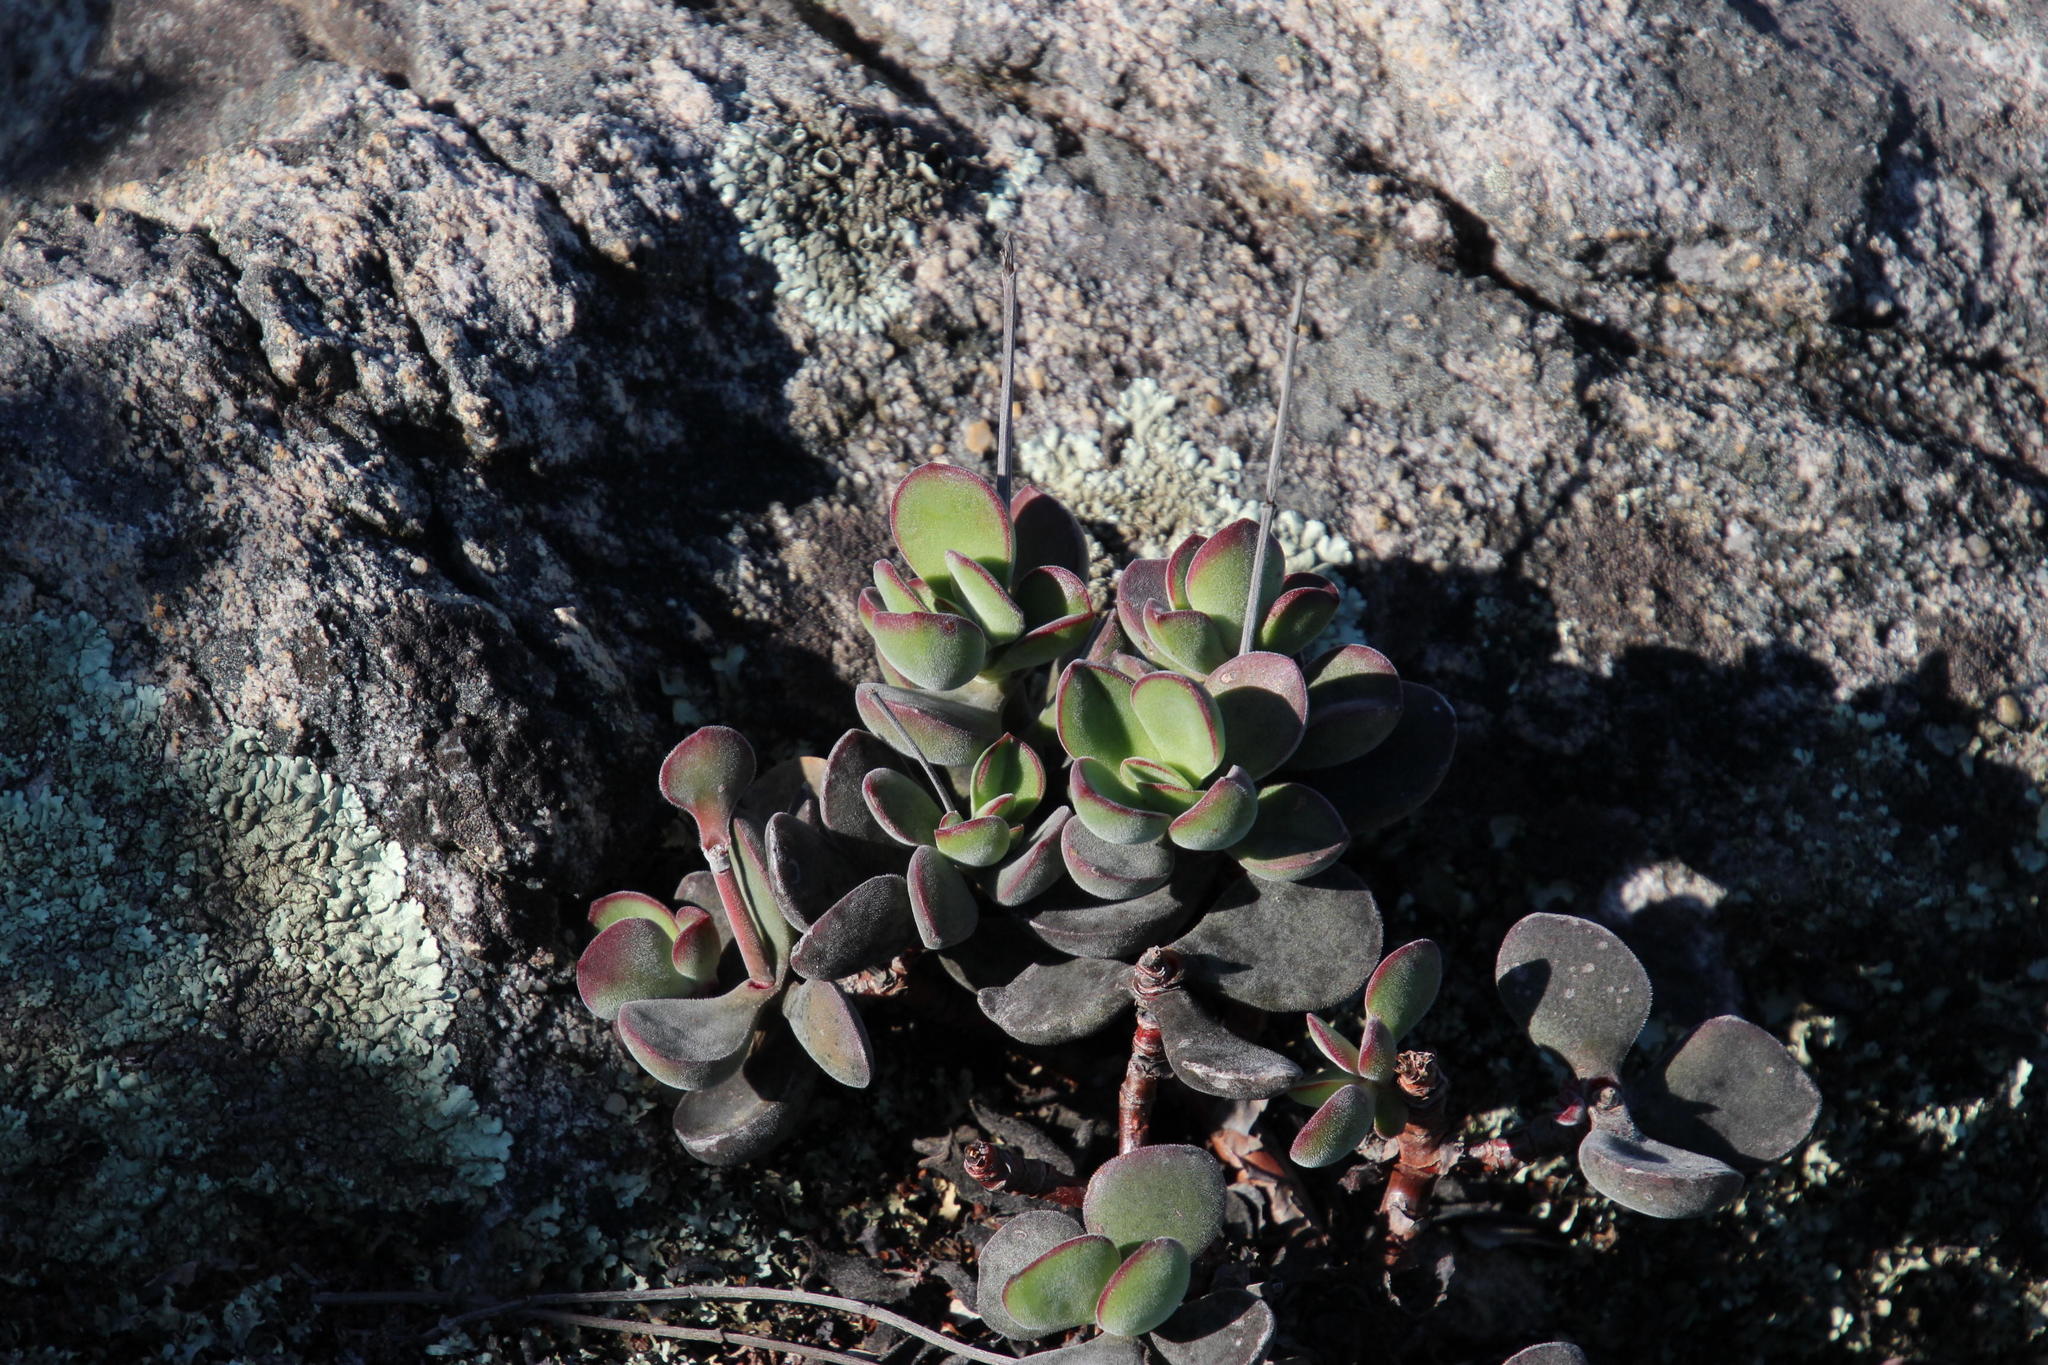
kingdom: Plantae
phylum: Tracheophyta
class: Magnoliopsida
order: Saxifragales
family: Crassulaceae
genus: Crassula
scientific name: Crassula atropurpurea
